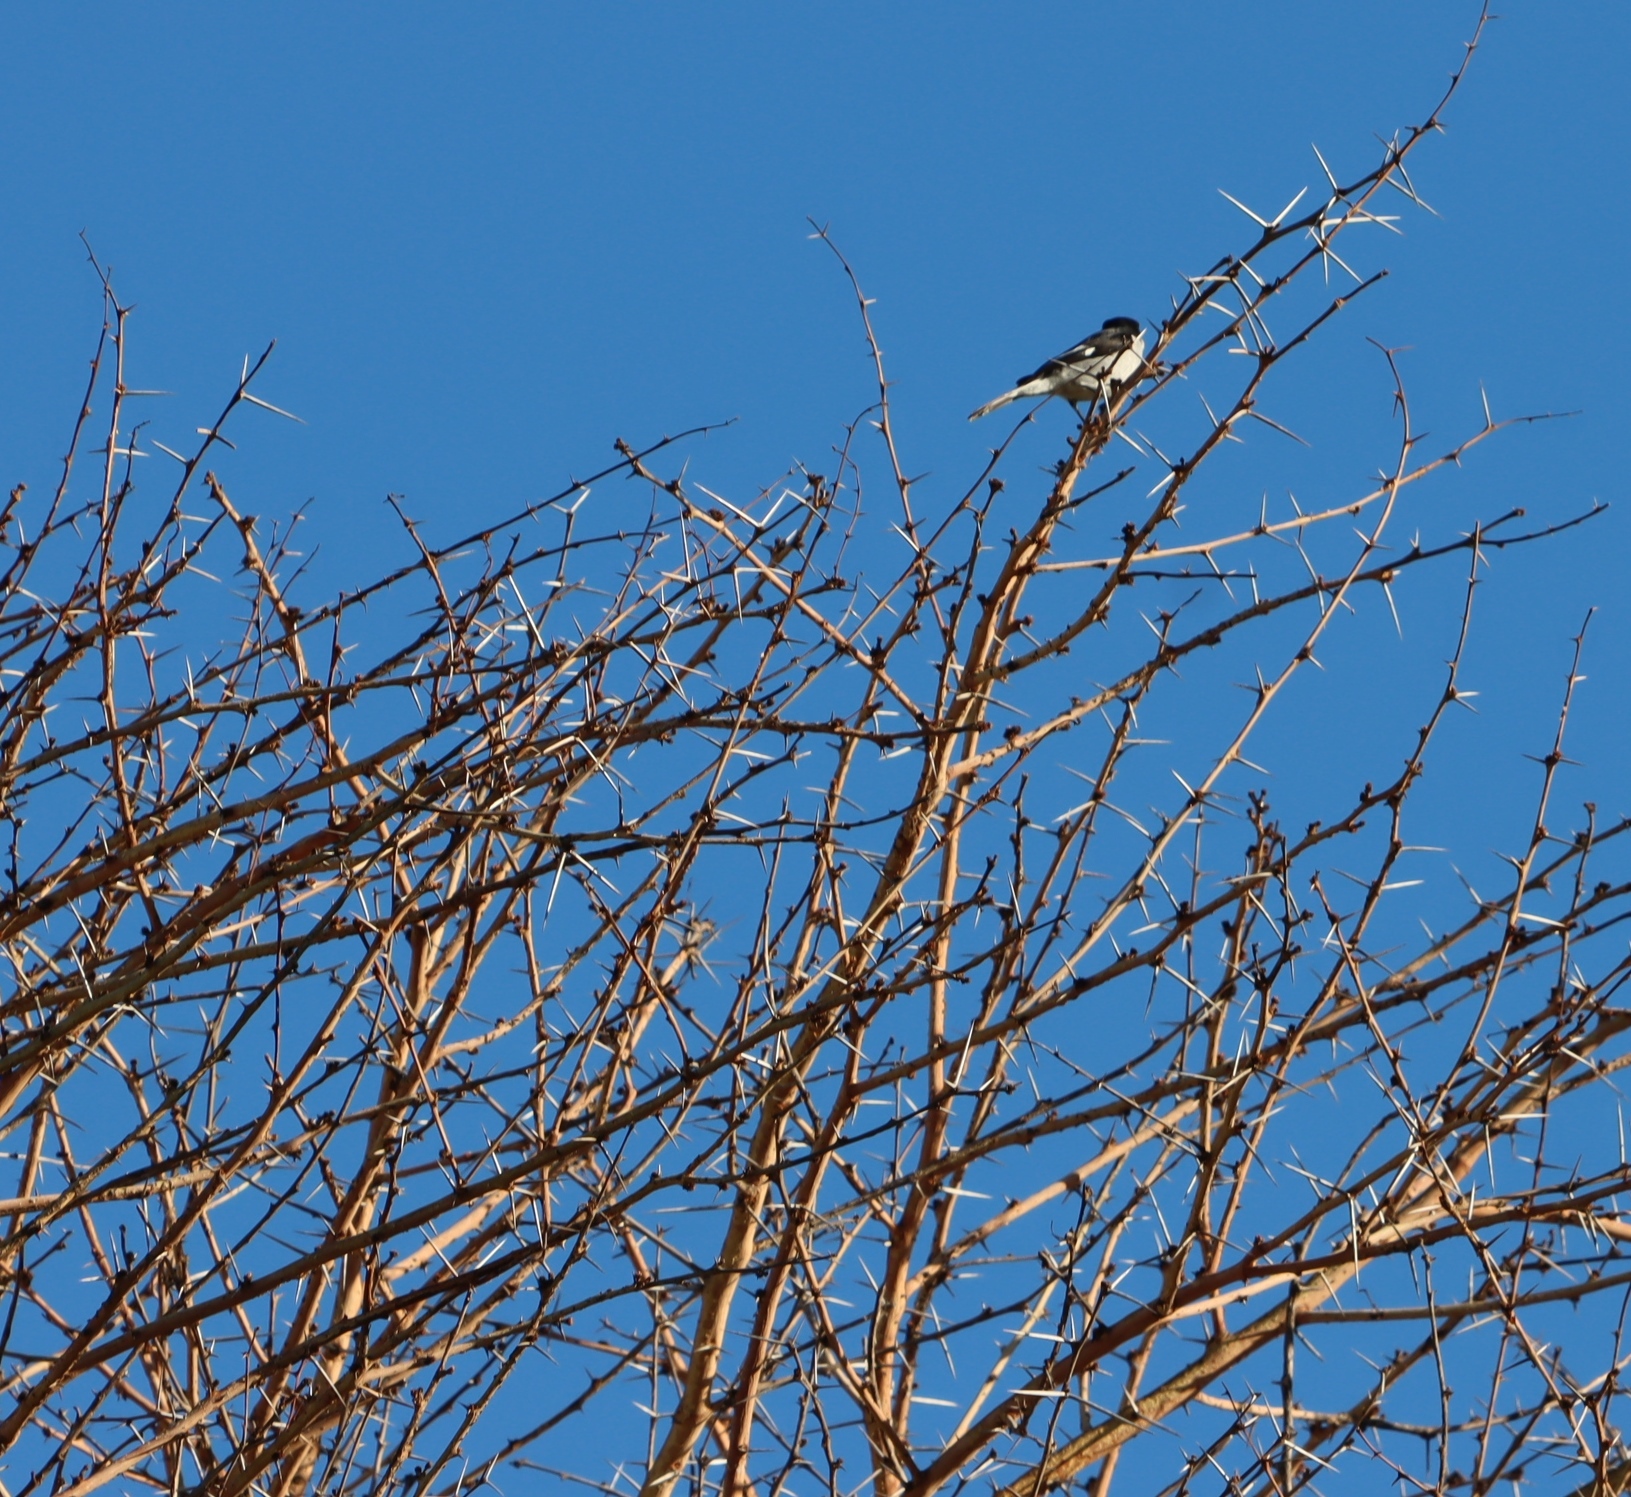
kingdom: Animalia
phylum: Chordata
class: Aves
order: Passeriformes
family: Muscicapidae
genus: Sigelus
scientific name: Sigelus silens
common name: Fiscal flycatcher
